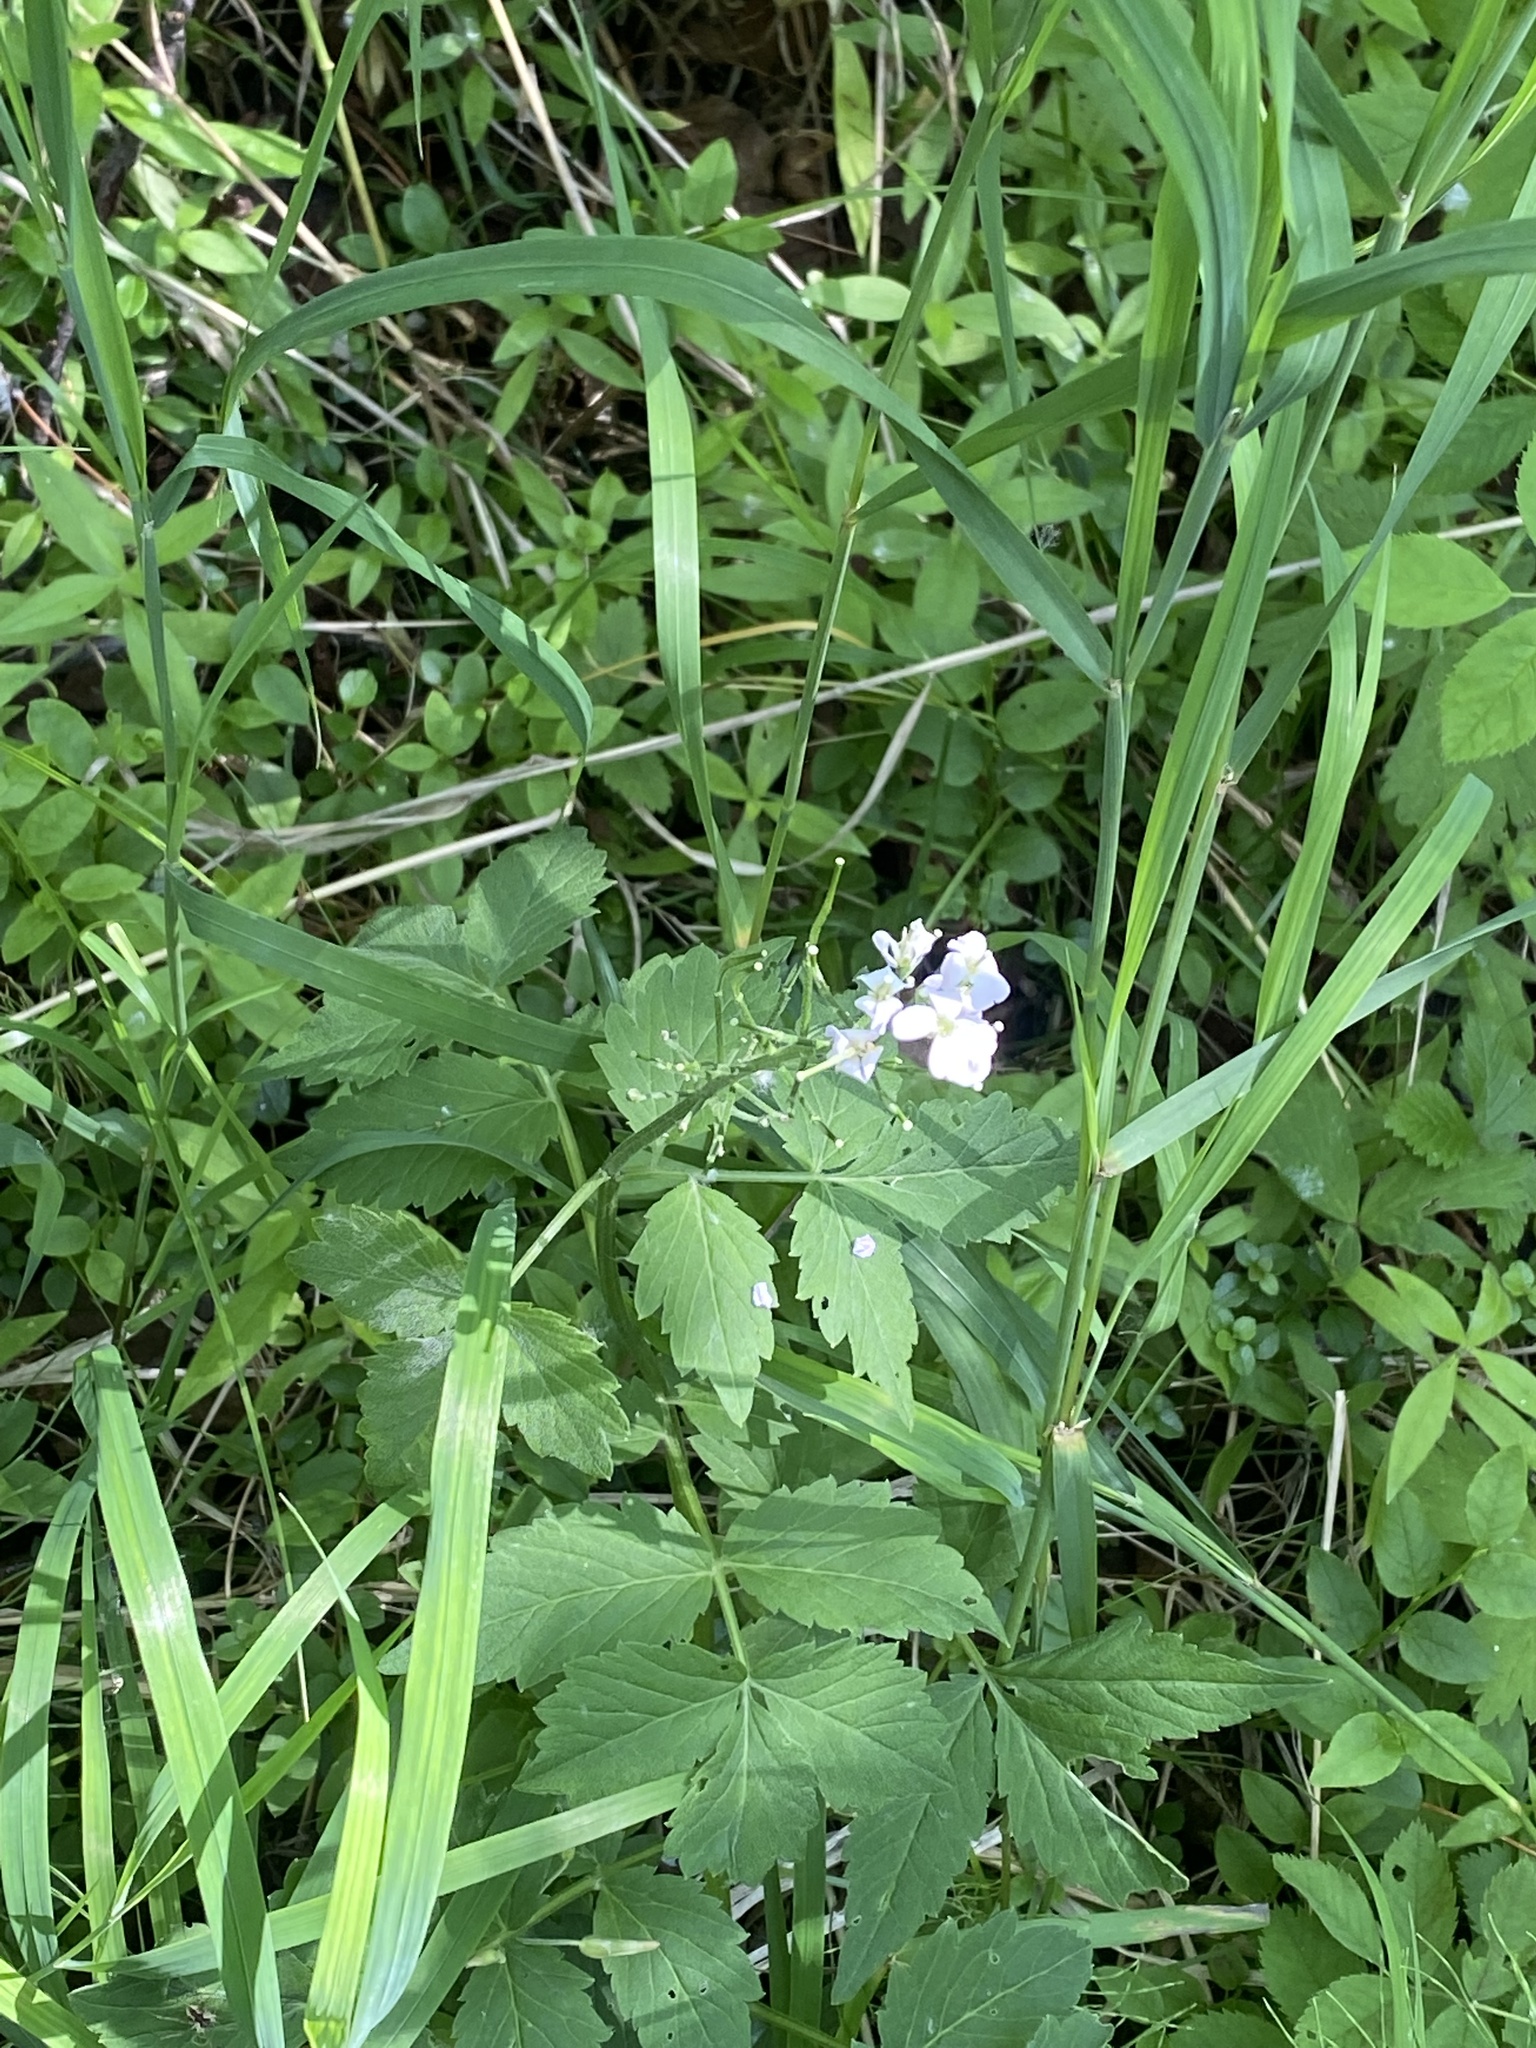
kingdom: Plantae
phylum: Tracheophyta
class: Magnoliopsida
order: Brassicales
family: Brassicaceae
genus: Cardamine
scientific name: Cardamine macrophylla
